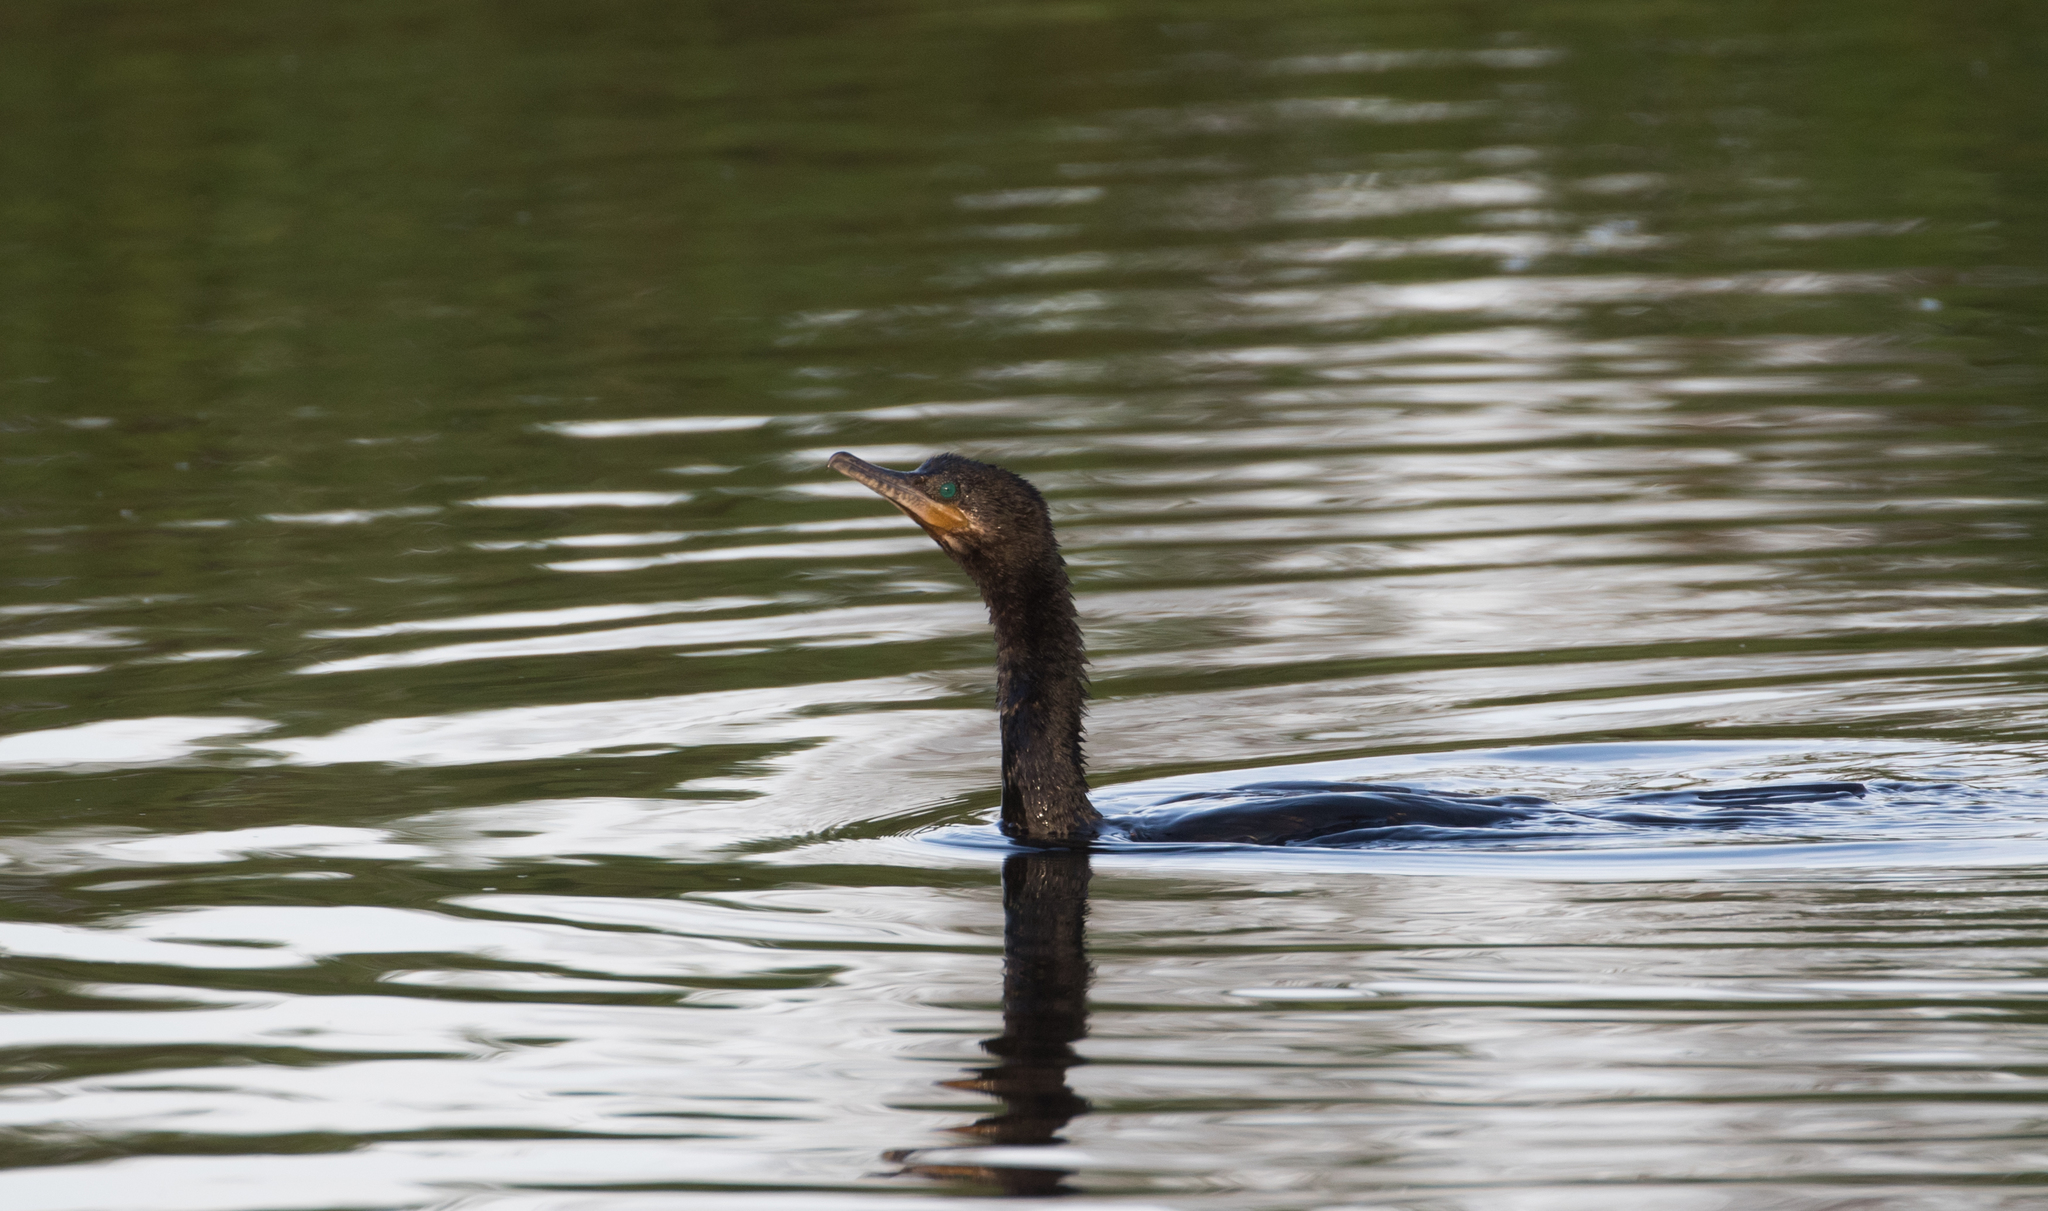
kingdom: Animalia
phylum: Chordata
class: Aves
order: Suliformes
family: Phalacrocoracidae
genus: Phalacrocorax
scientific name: Phalacrocorax brasilianus
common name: Neotropic cormorant
